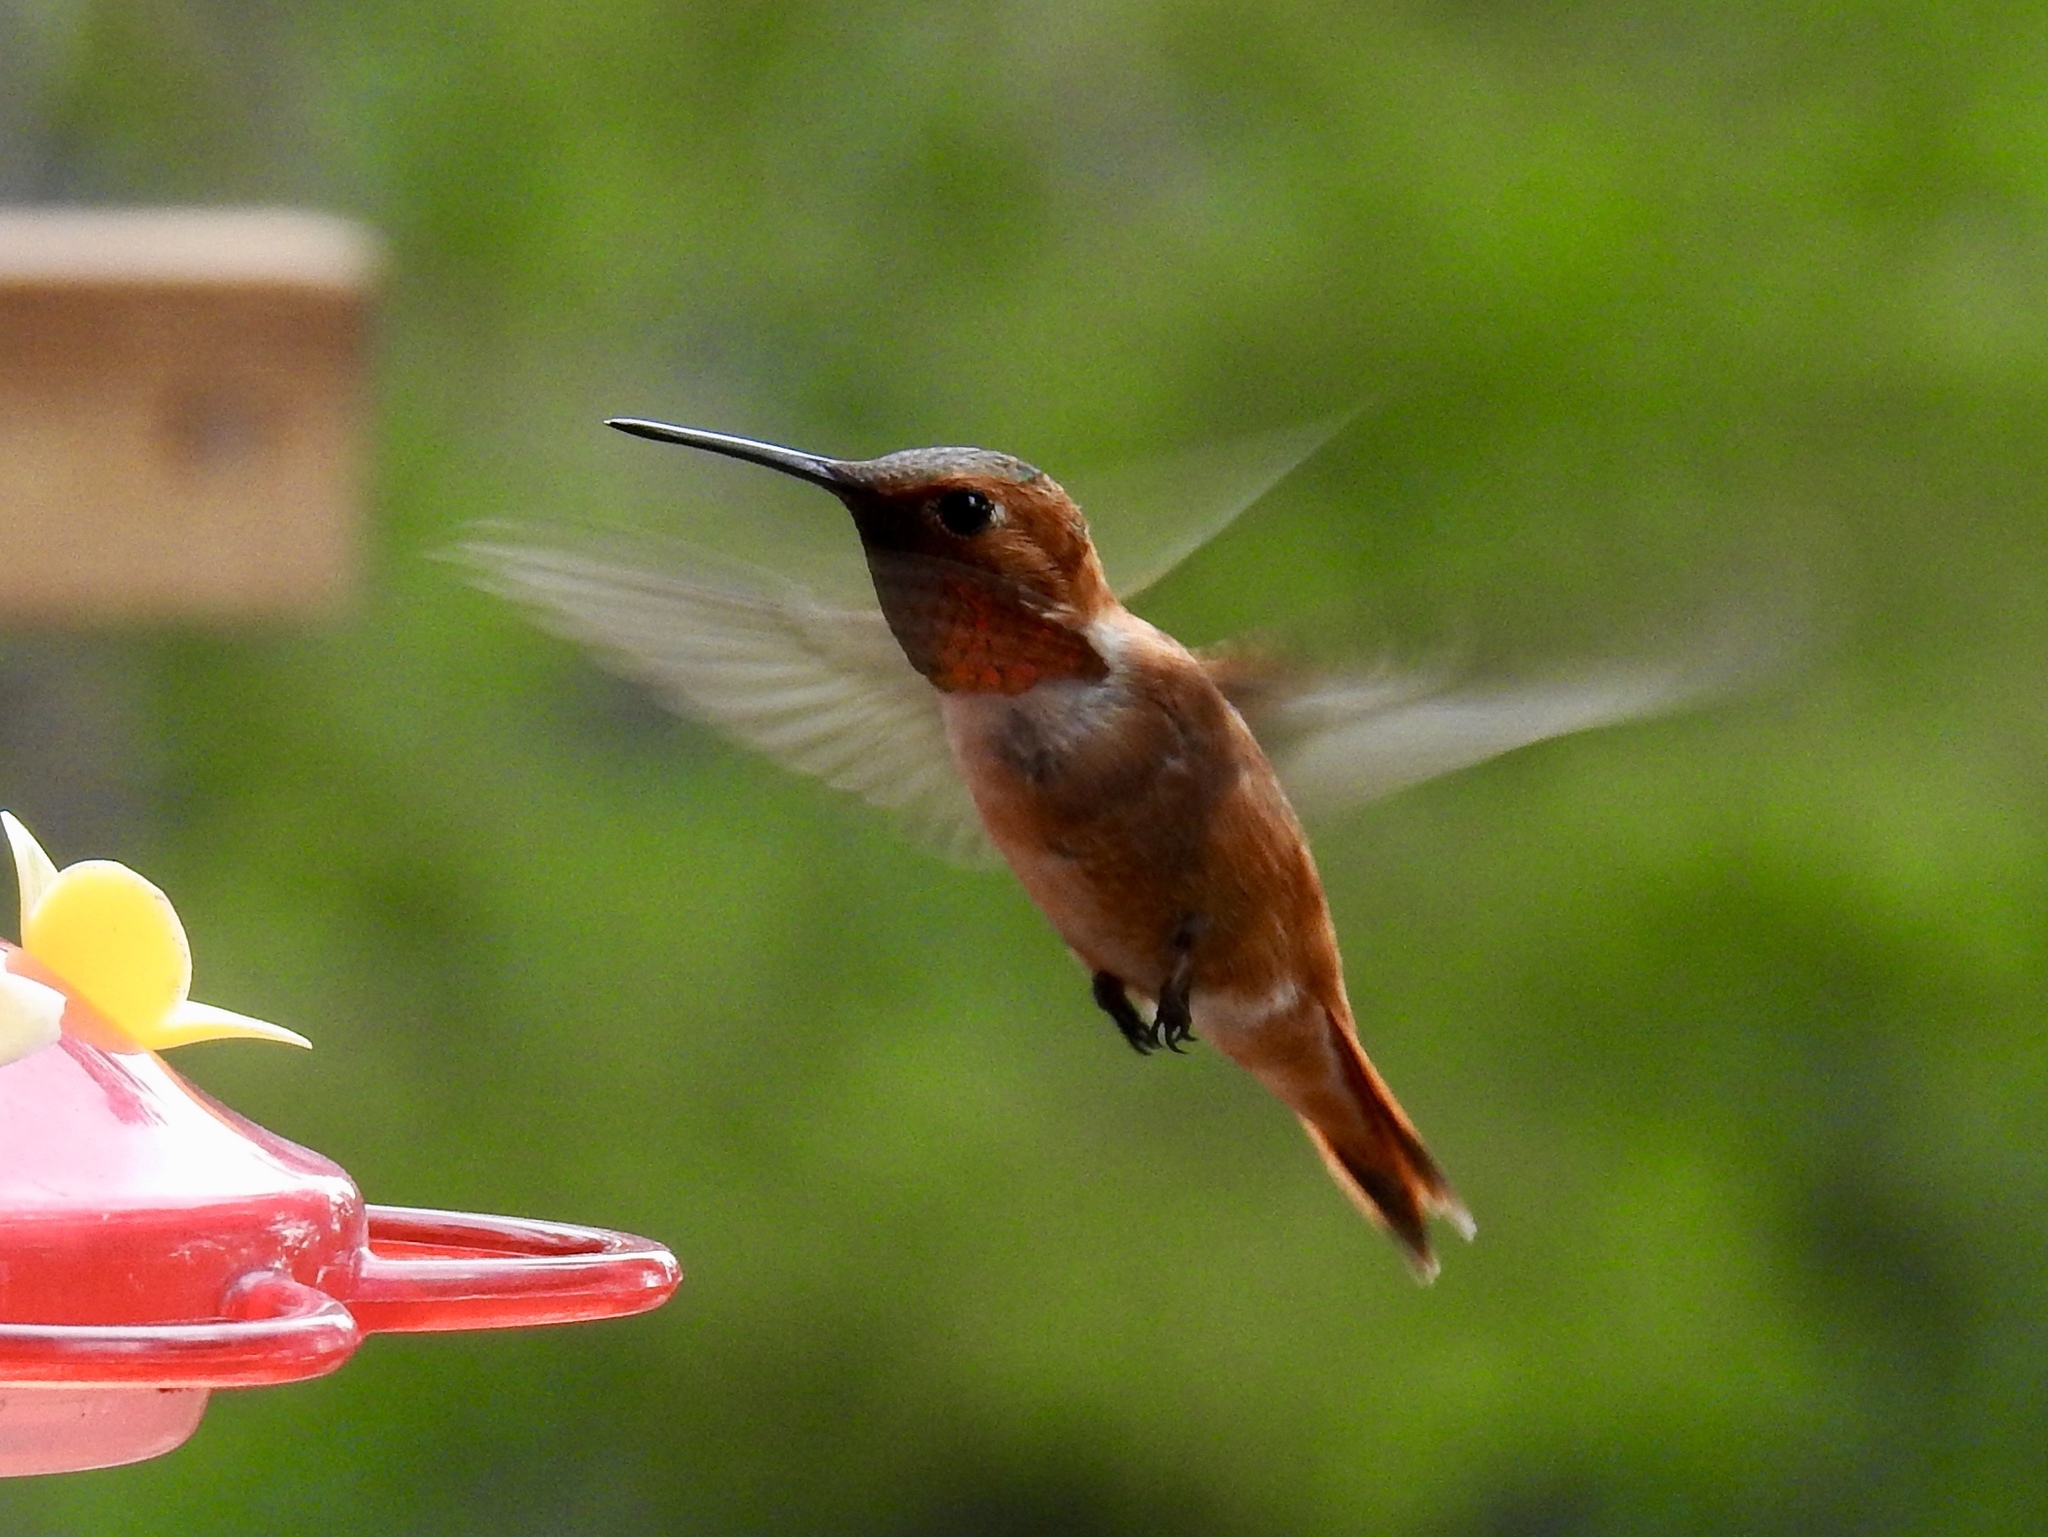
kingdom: Animalia
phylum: Chordata
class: Aves
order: Apodiformes
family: Trochilidae
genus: Selasphorus
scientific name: Selasphorus rufus
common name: Rufous hummingbird
